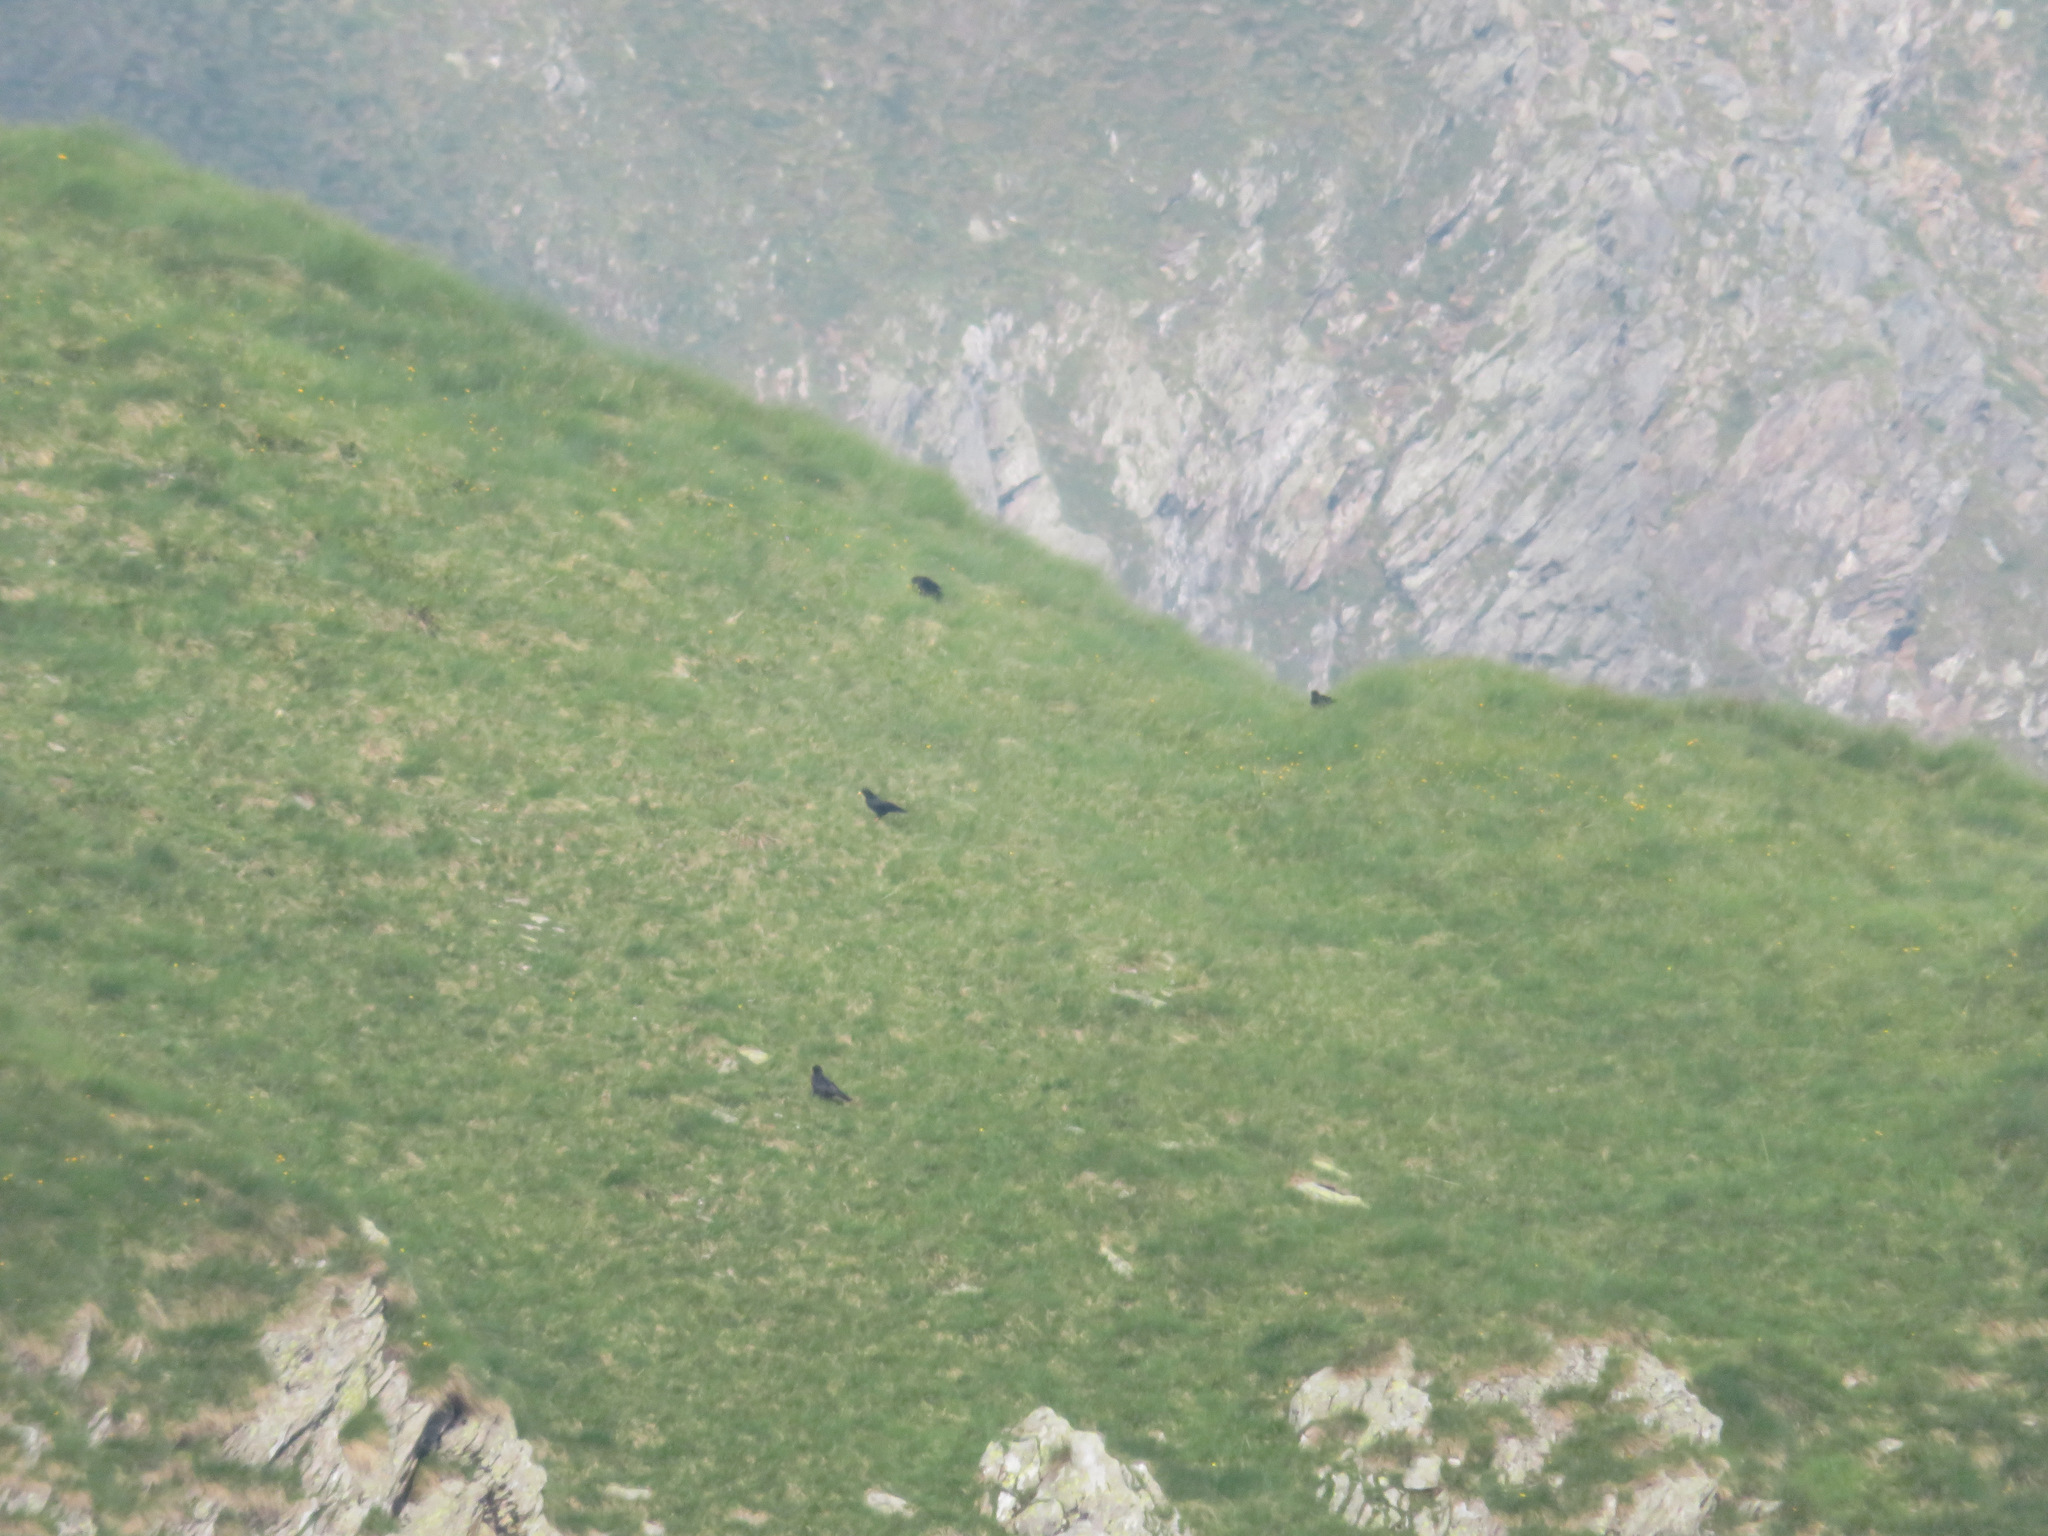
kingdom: Animalia
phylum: Chordata
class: Aves
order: Passeriformes
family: Corvidae
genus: Pyrrhocorax
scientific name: Pyrrhocorax graculus
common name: Alpine chough
